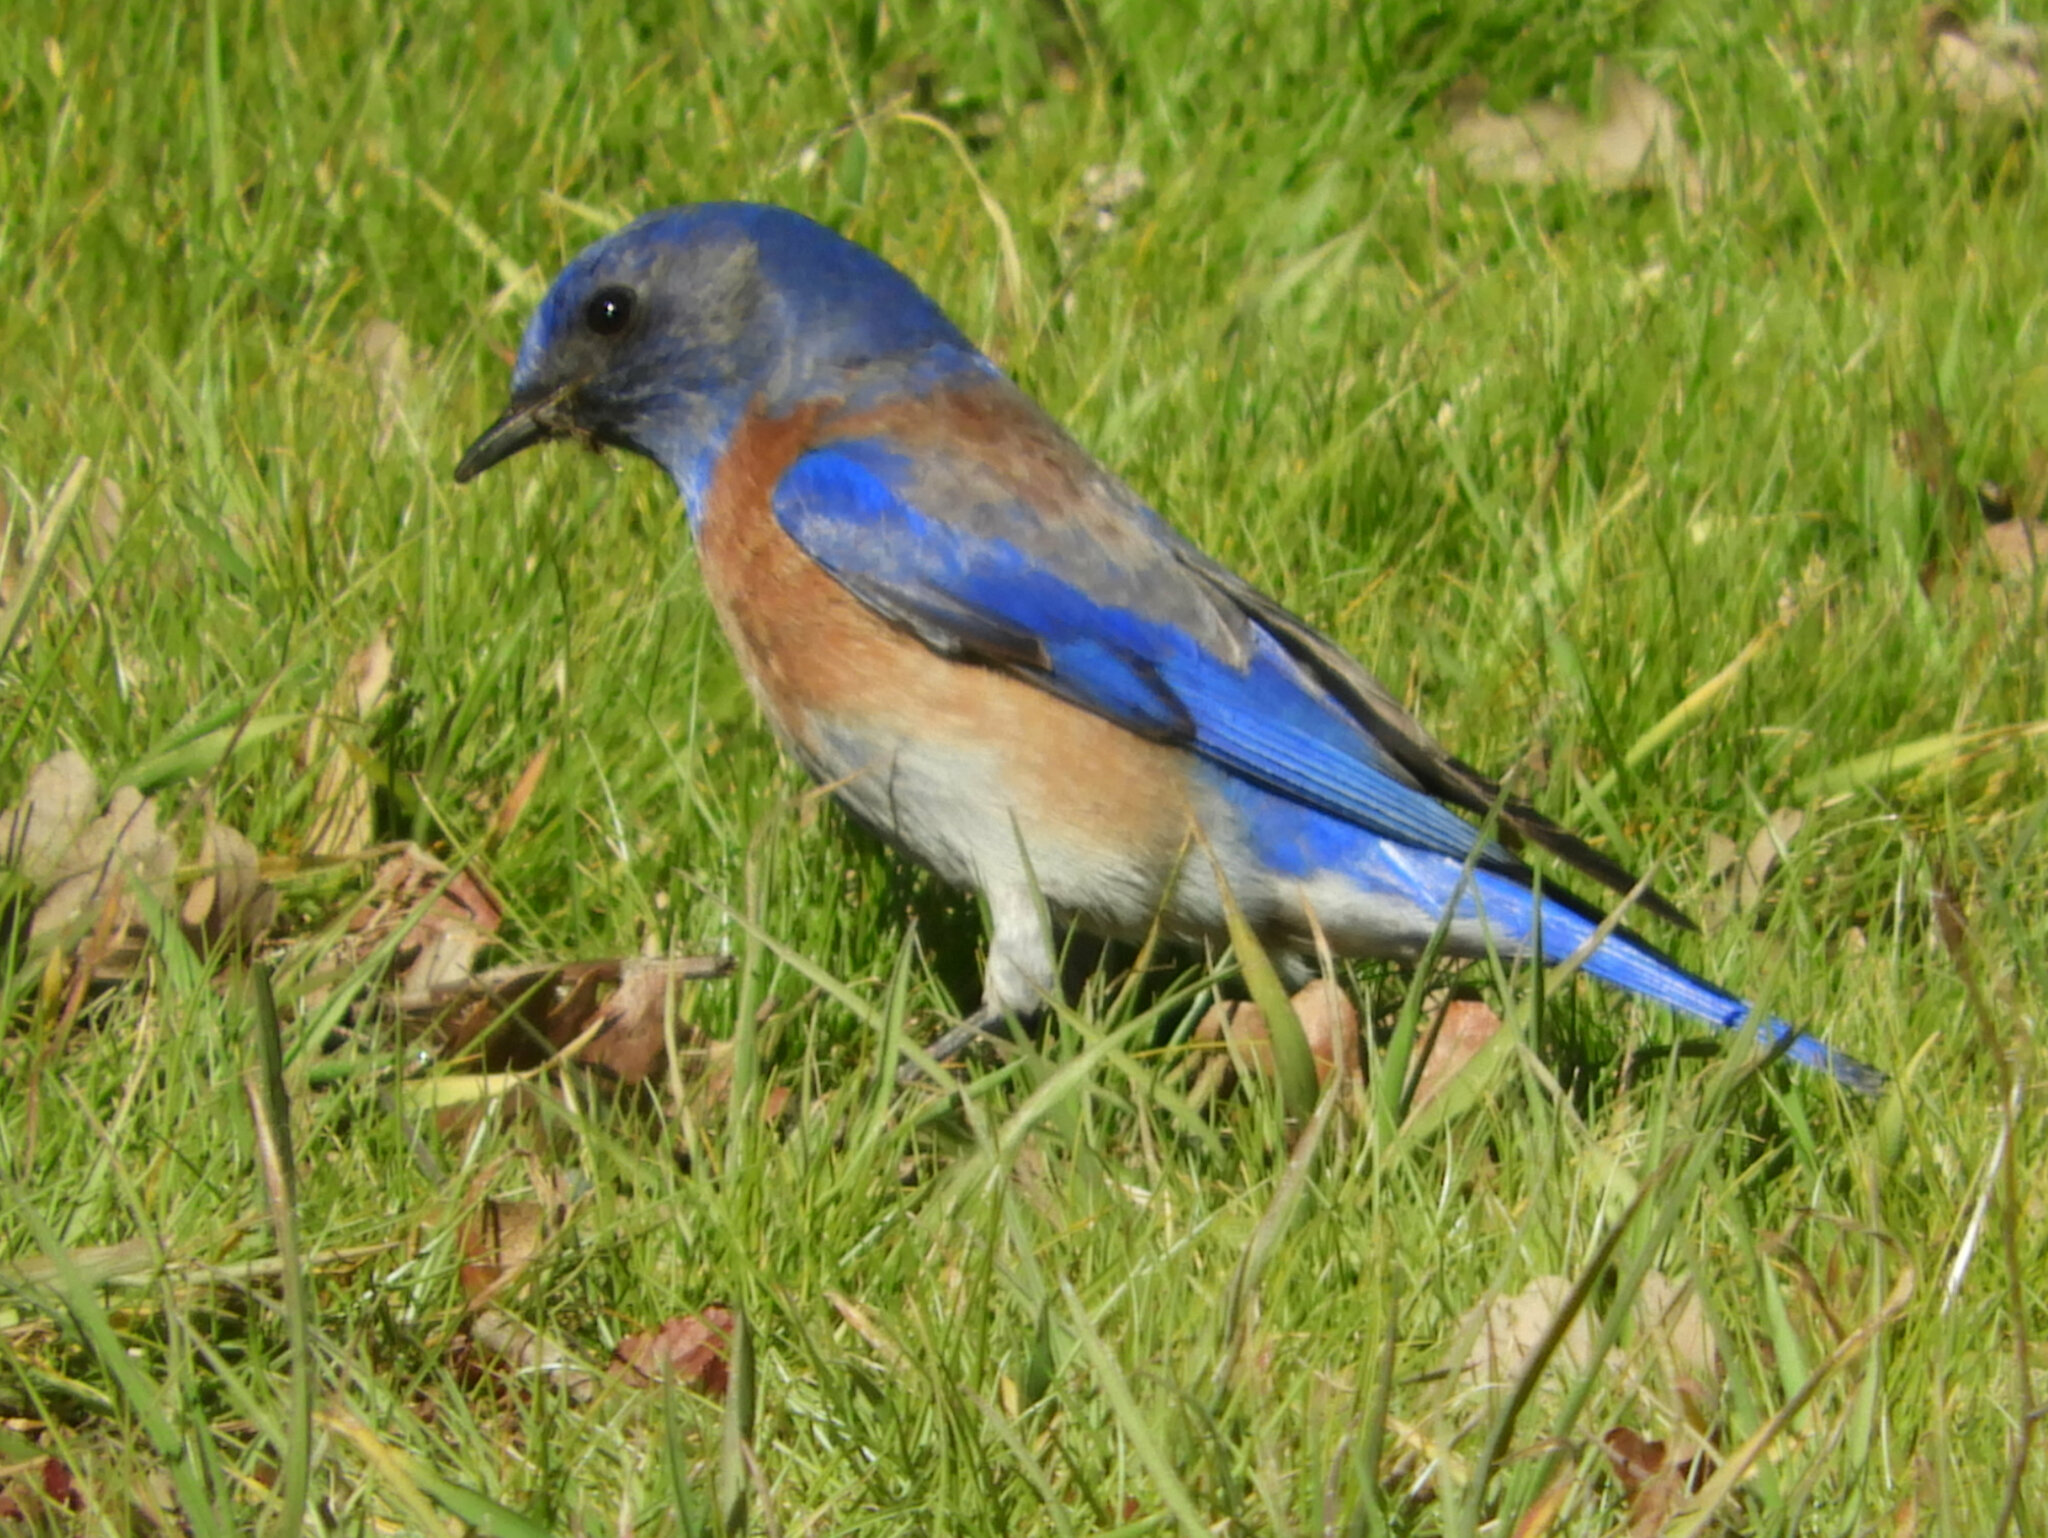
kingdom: Animalia
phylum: Chordata
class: Aves
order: Passeriformes
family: Turdidae
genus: Sialia
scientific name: Sialia mexicana
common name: Western bluebird
